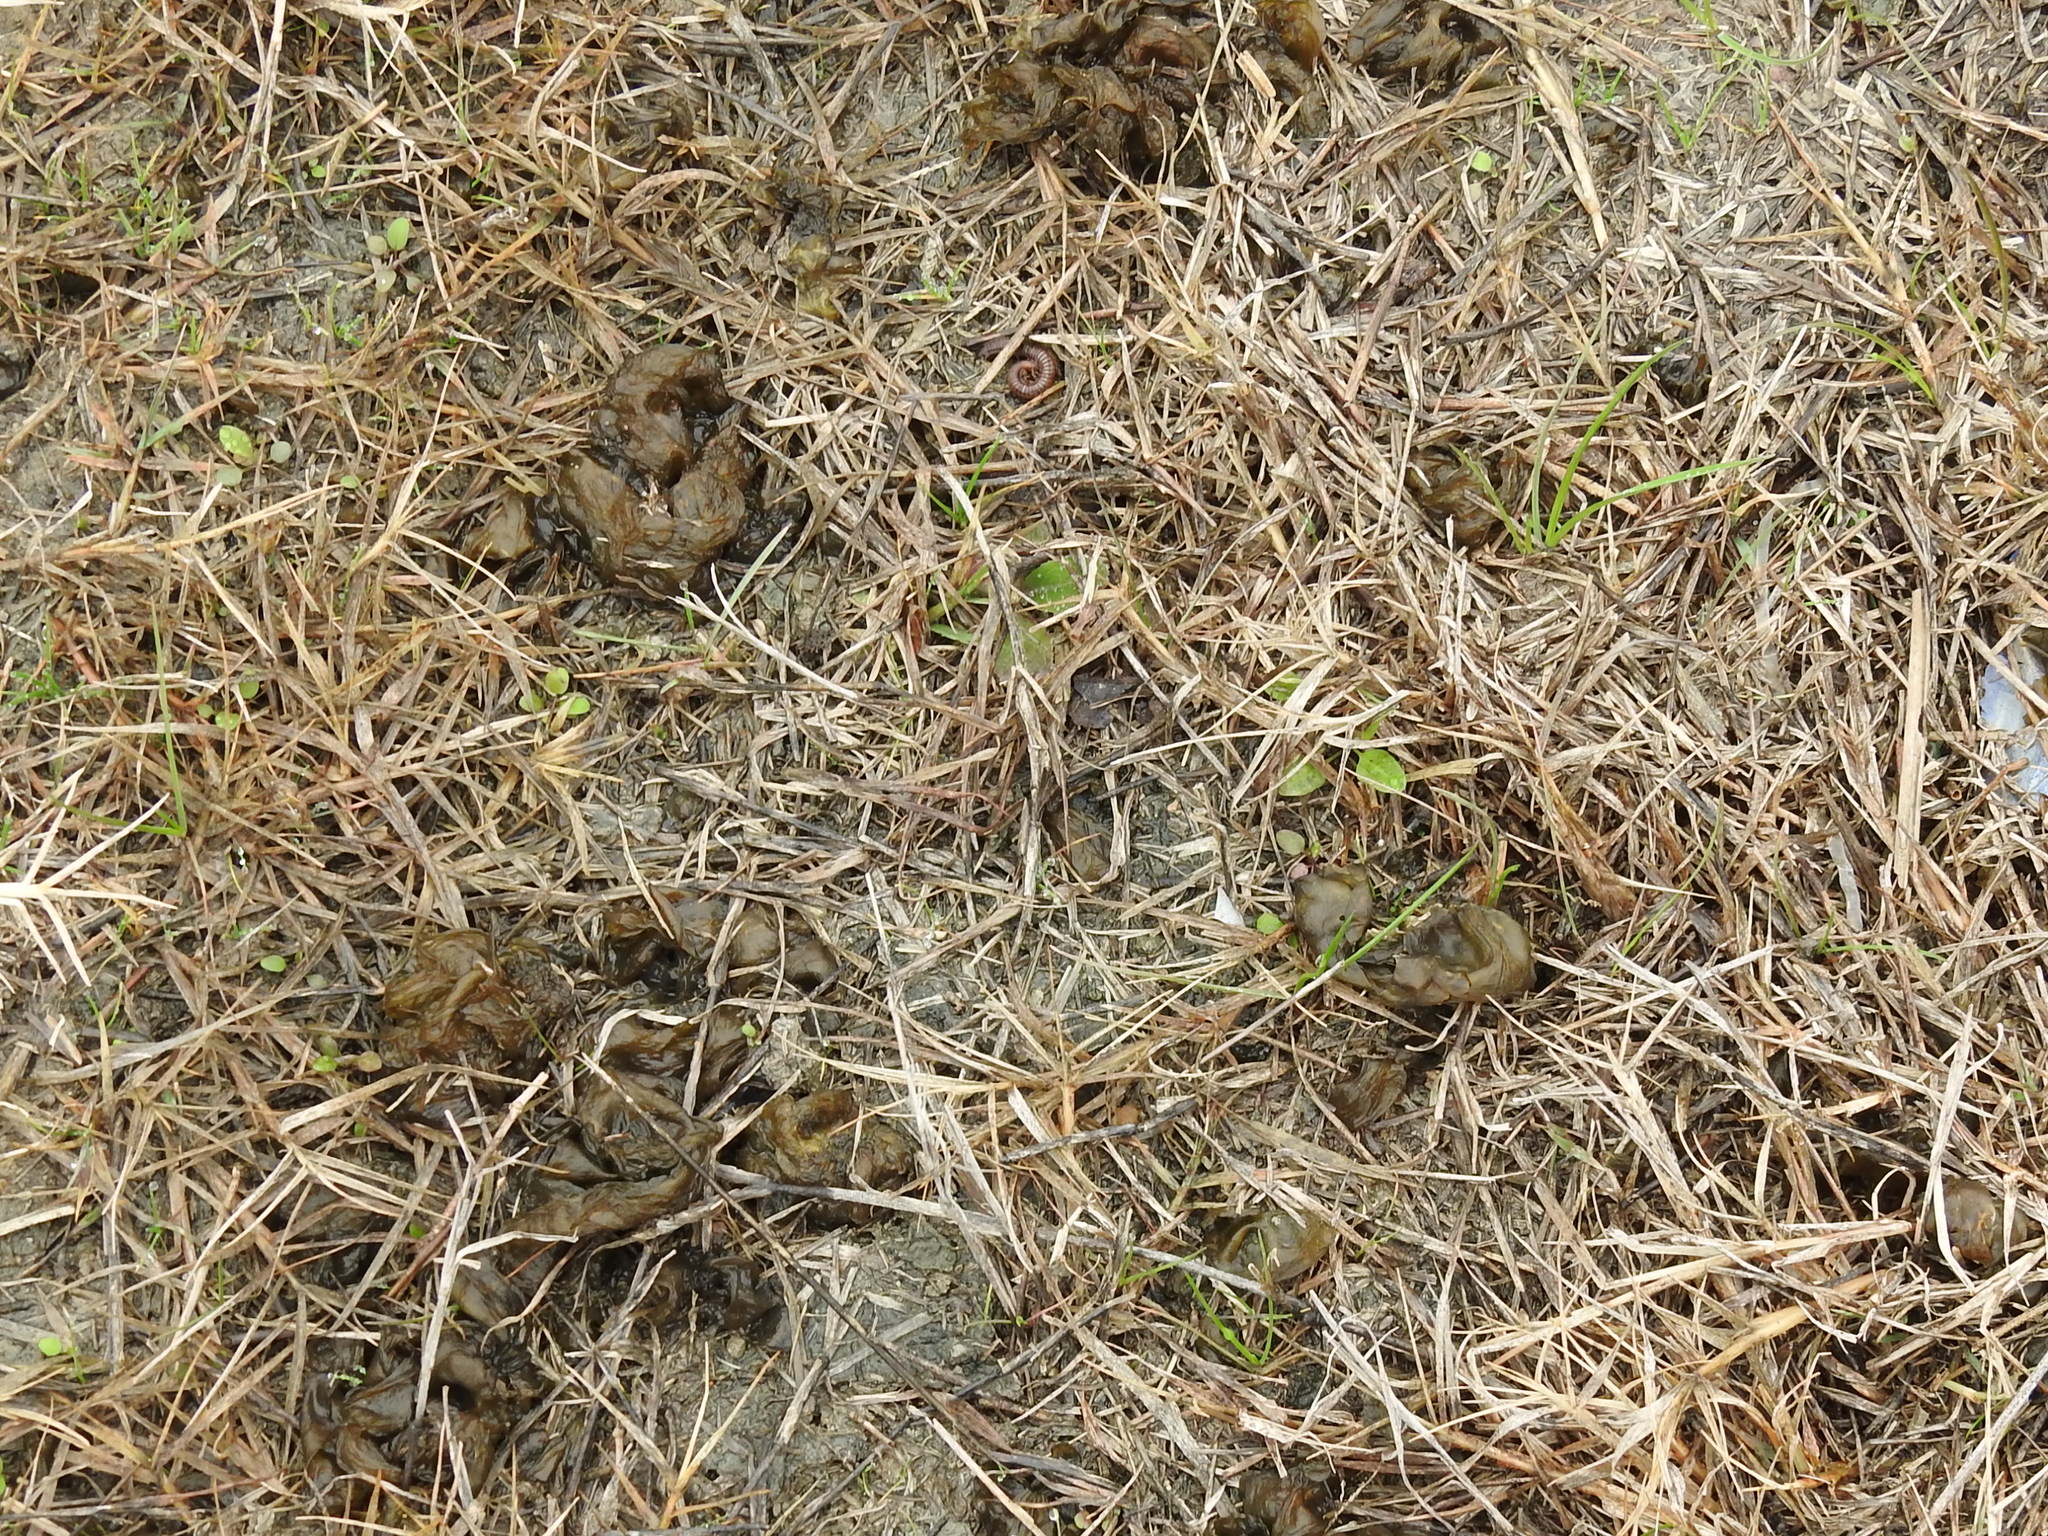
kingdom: Bacteria
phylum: Cyanobacteria
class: Cyanobacteriia
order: Cyanobacteriales
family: Nostocaceae
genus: Nostoc
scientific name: Nostoc commune
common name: Star jelly
